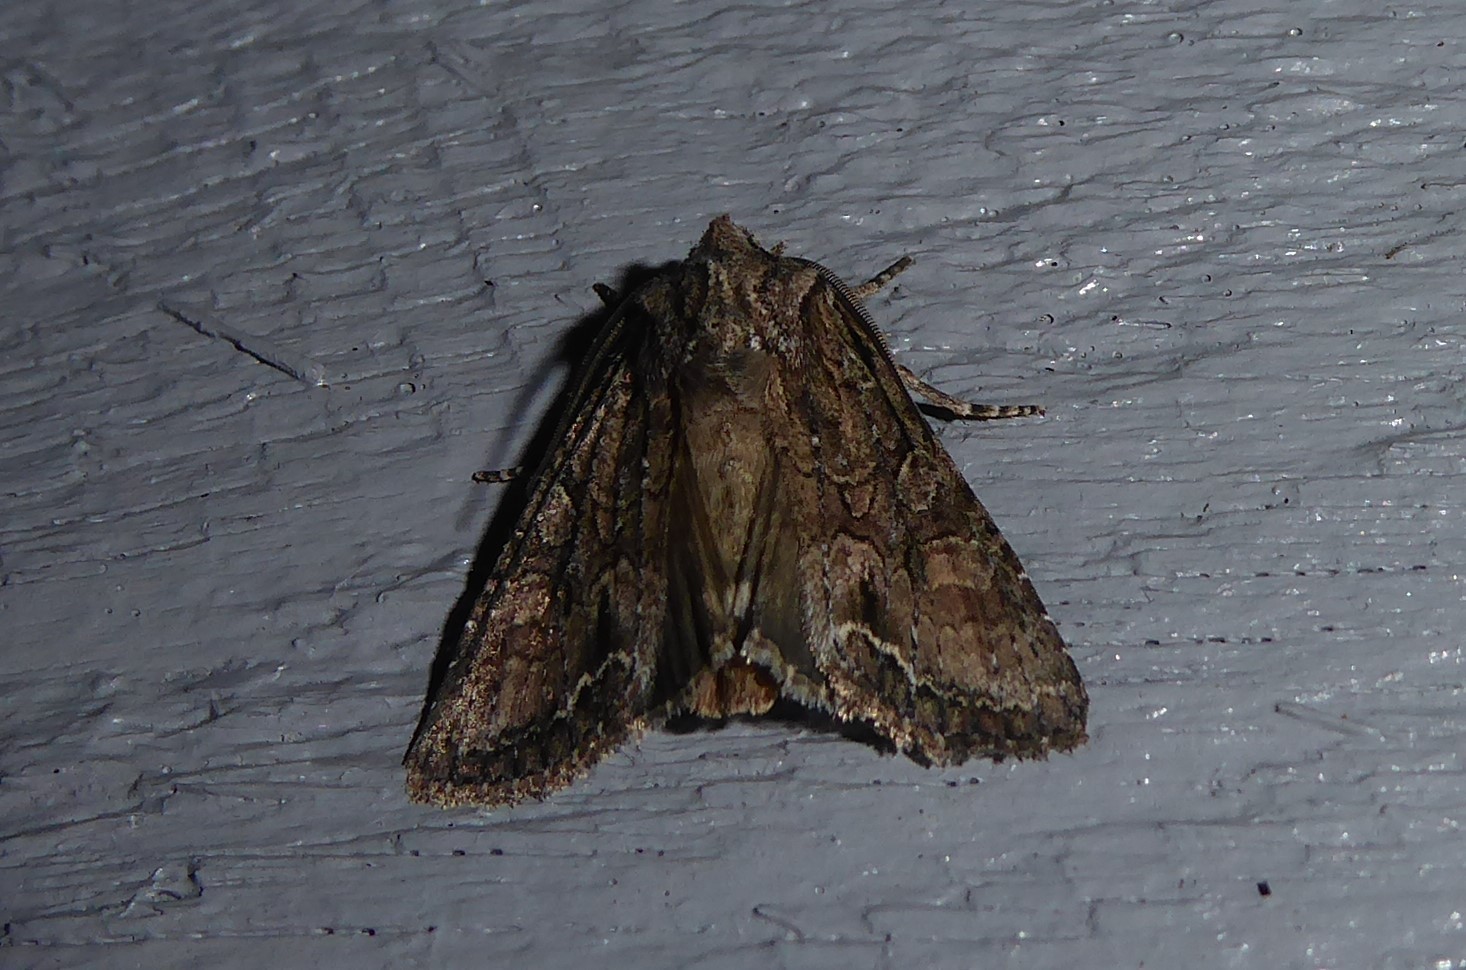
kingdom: Animalia
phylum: Arthropoda
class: Insecta
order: Lepidoptera
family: Noctuidae
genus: Ichneutica
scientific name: Ichneutica mutans
